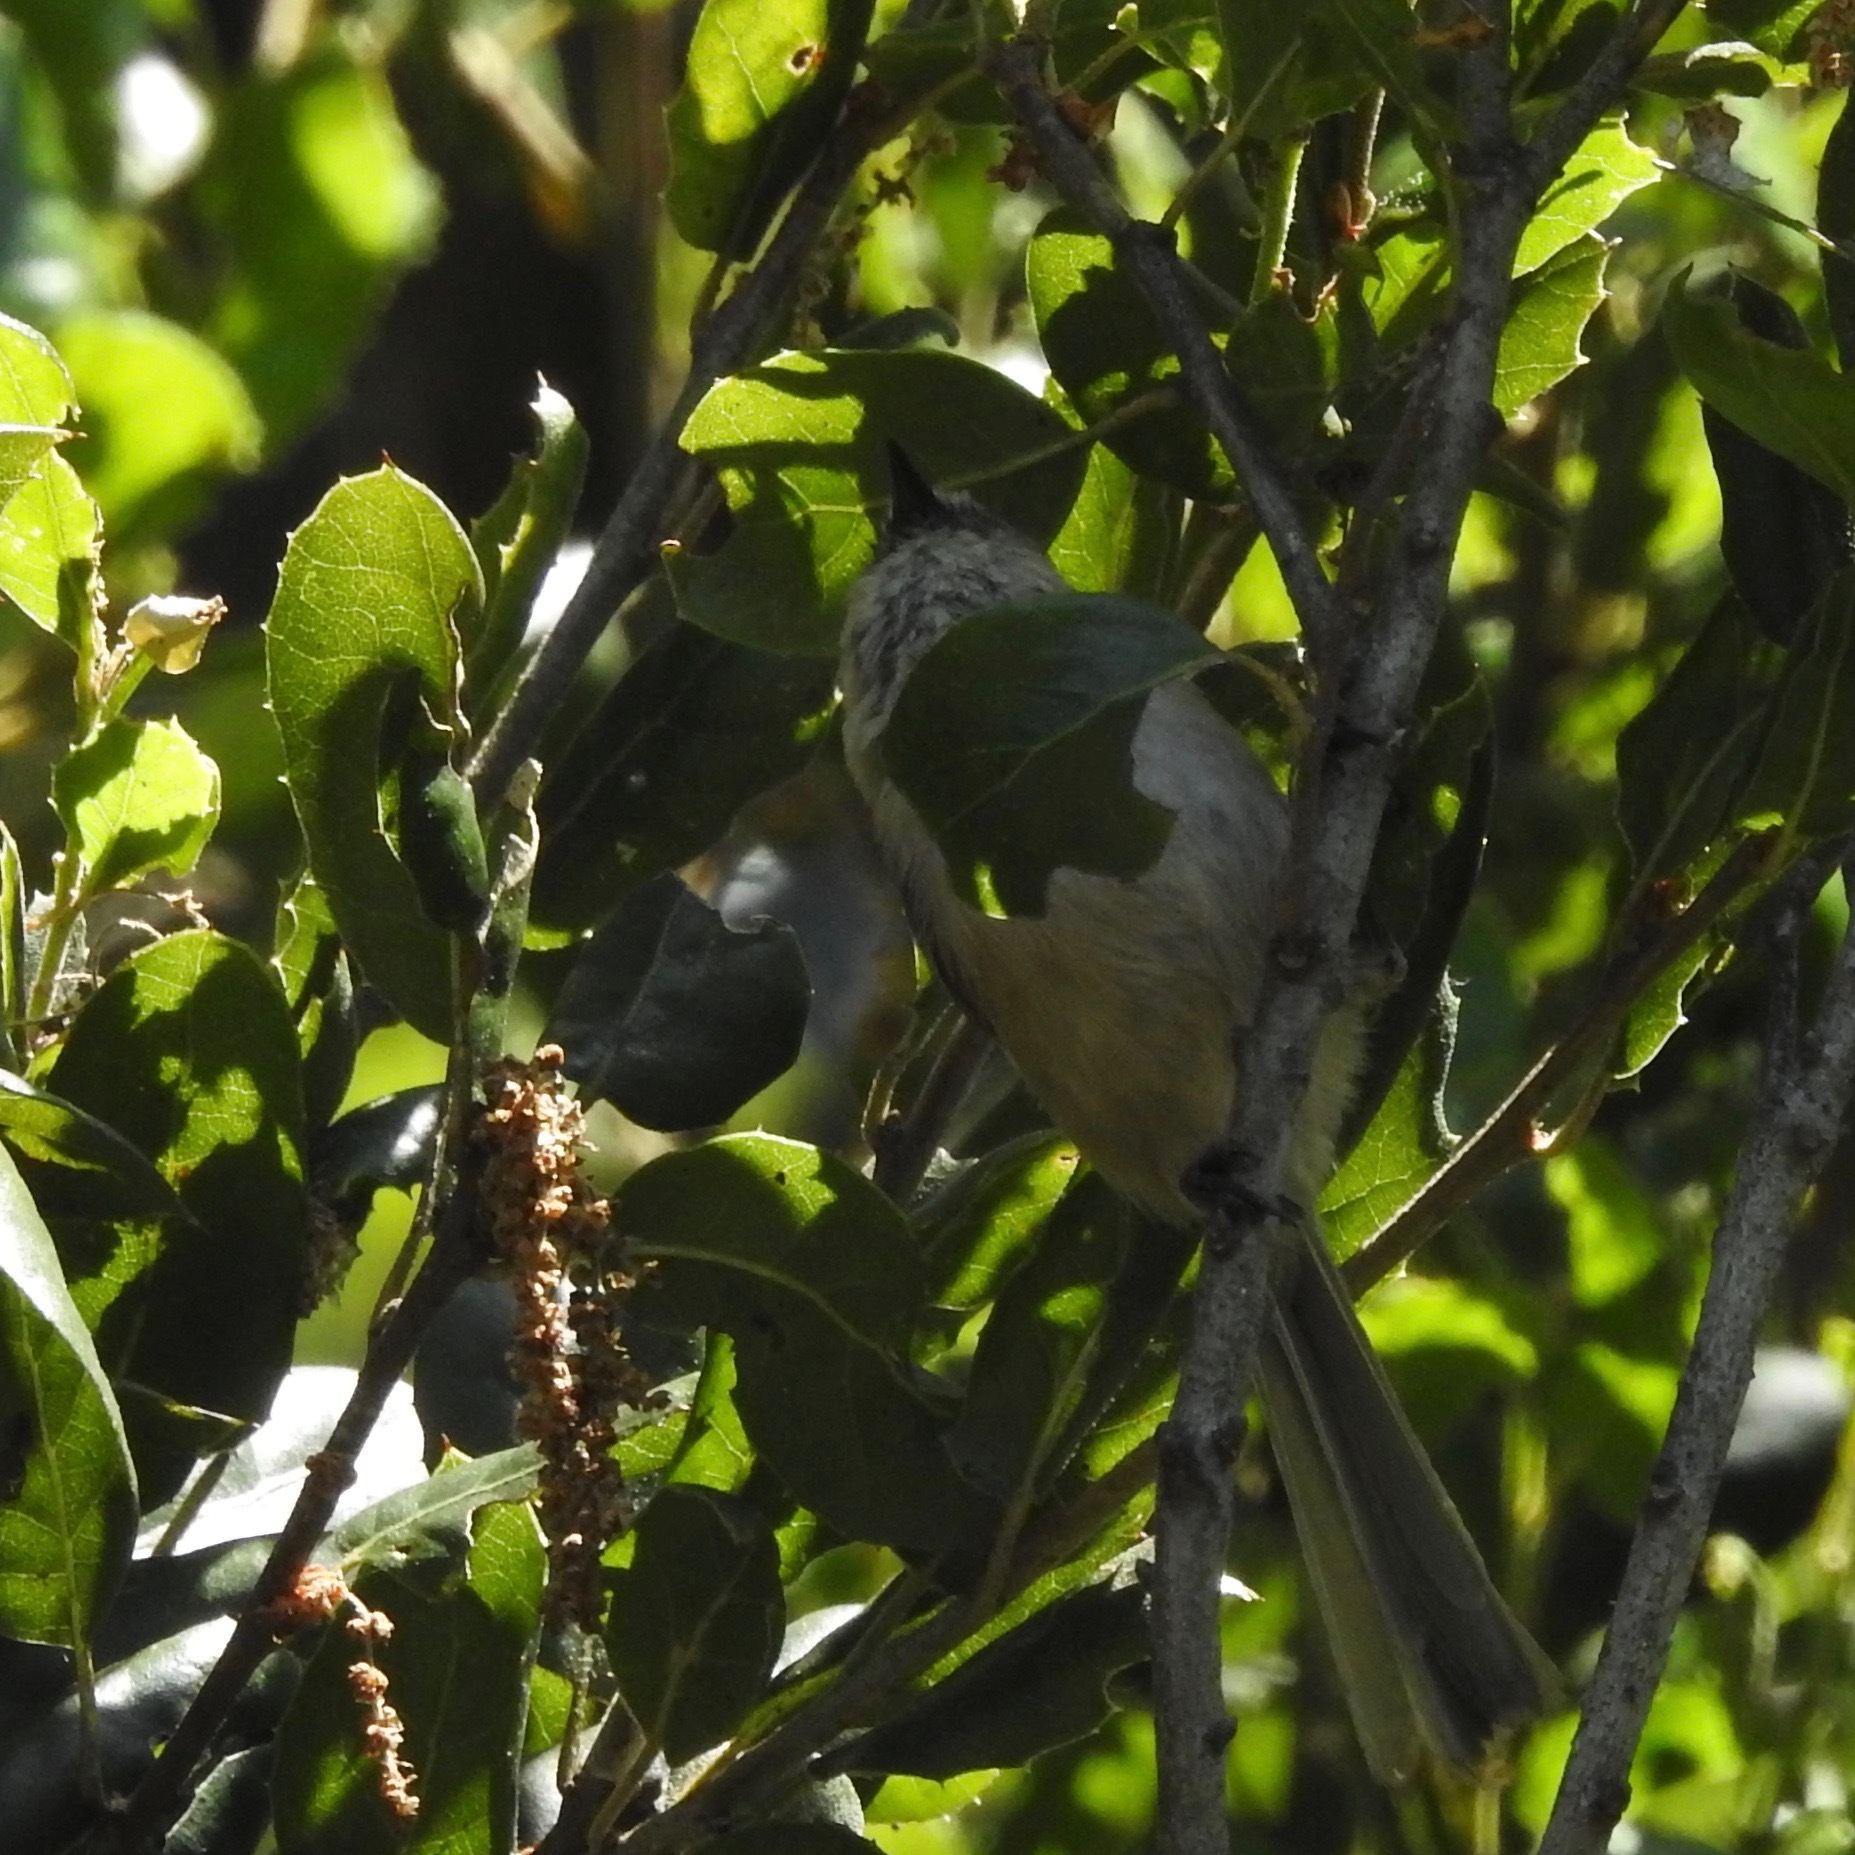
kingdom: Animalia
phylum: Chordata
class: Aves
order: Passeriformes
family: Aegithalidae
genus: Psaltriparus
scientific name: Psaltriparus minimus
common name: American bushtit
